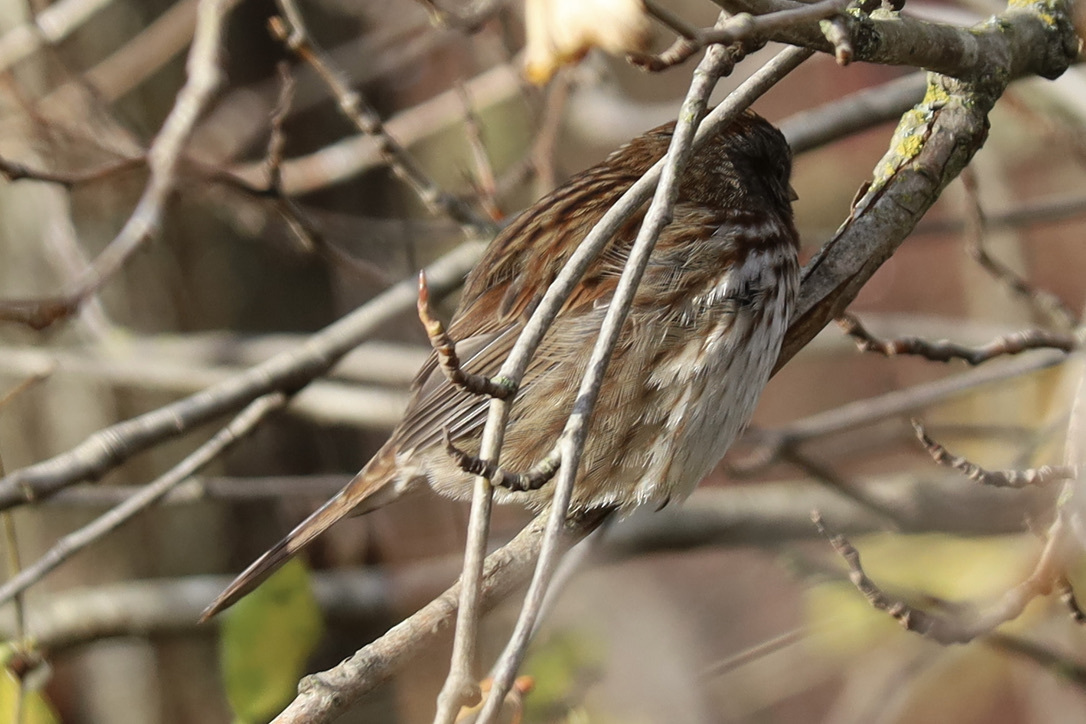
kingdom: Animalia
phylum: Chordata
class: Aves
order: Passeriformes
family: Passerellidae
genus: Melospiza
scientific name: Melospiza melodia
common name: Song sparrow
